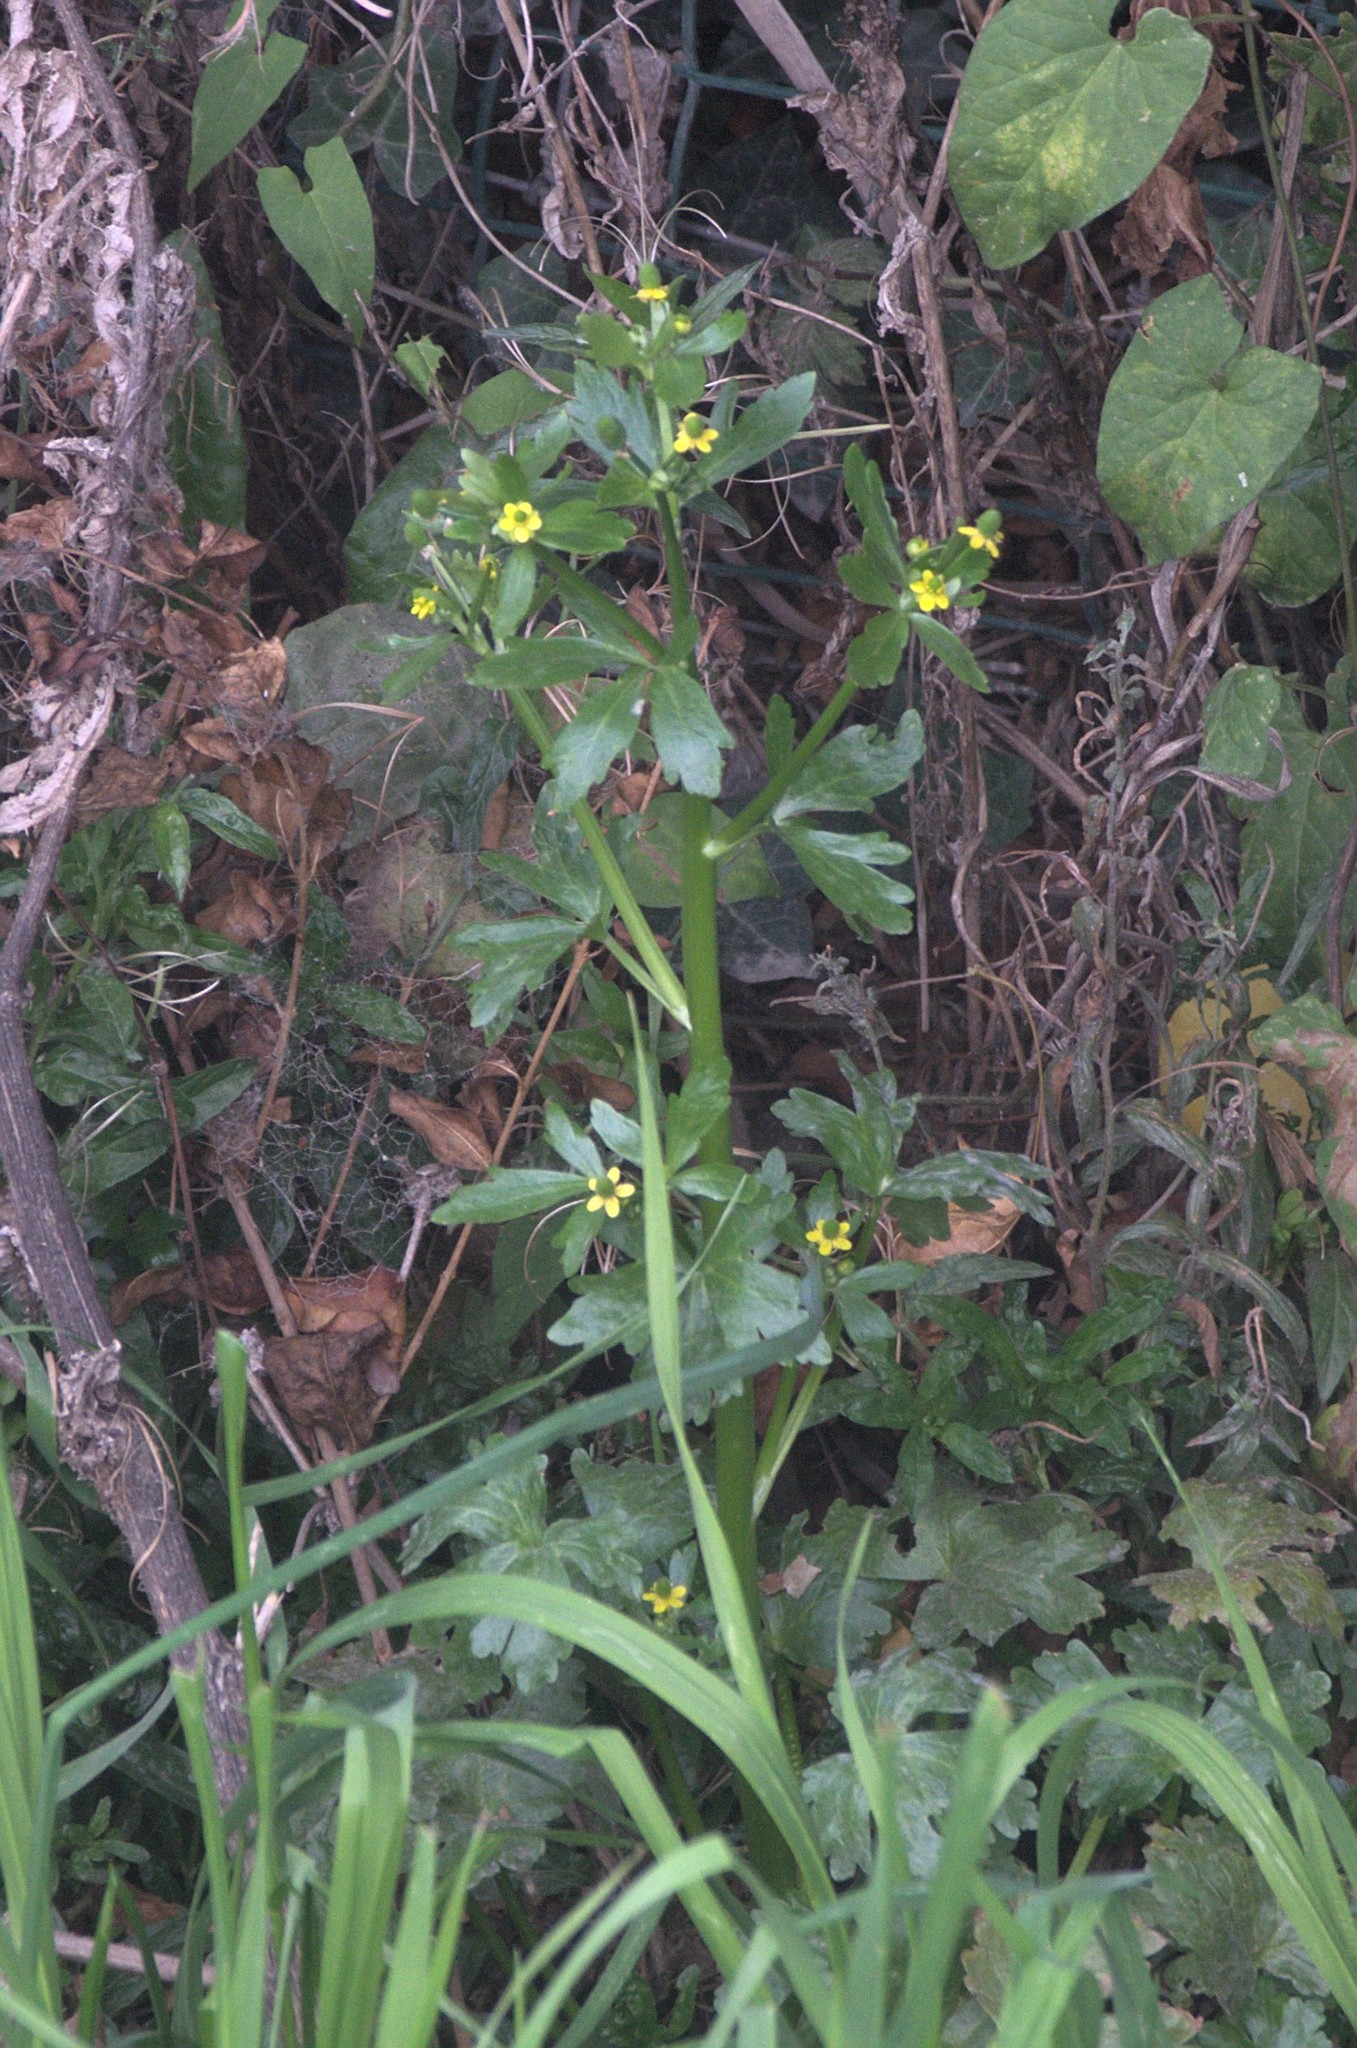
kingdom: Plantae
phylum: Tracheophyta
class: Magnoliopsida
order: Ranunculales
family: Ranunculaceae
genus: Ranunculus
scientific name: Ranunculus sceleratus
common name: Celery-leaved buttercup
